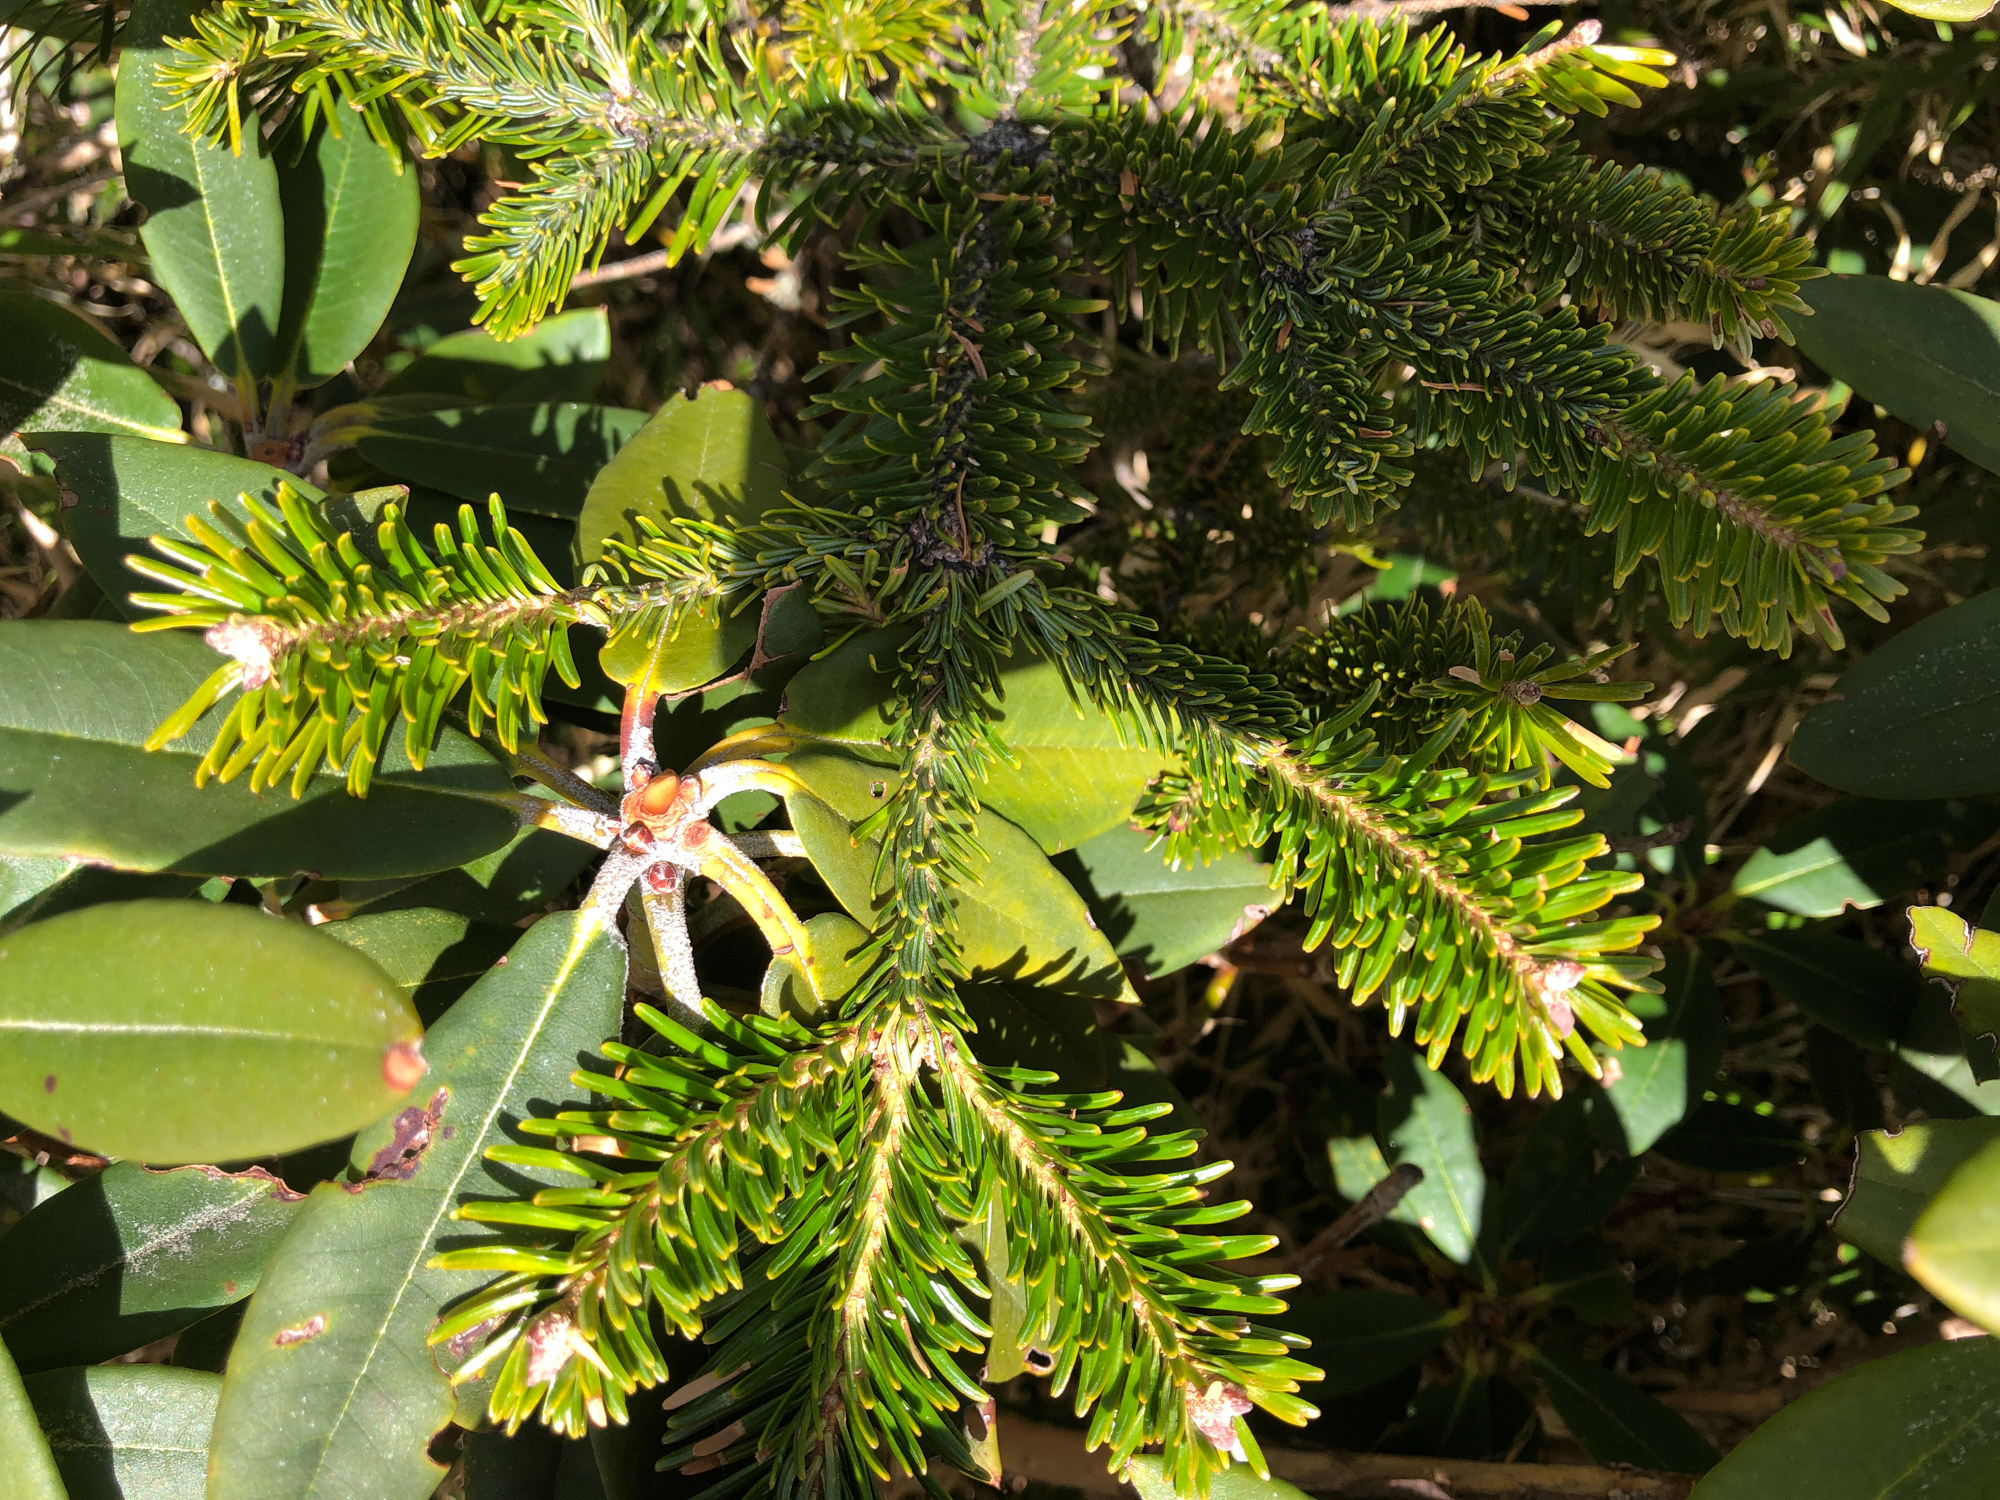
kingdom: Plantae
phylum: Tracheophyta
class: Pinopsida
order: Pinales
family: Pinaceae
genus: Abies
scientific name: Abies kawakamii
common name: Taiwan fir
